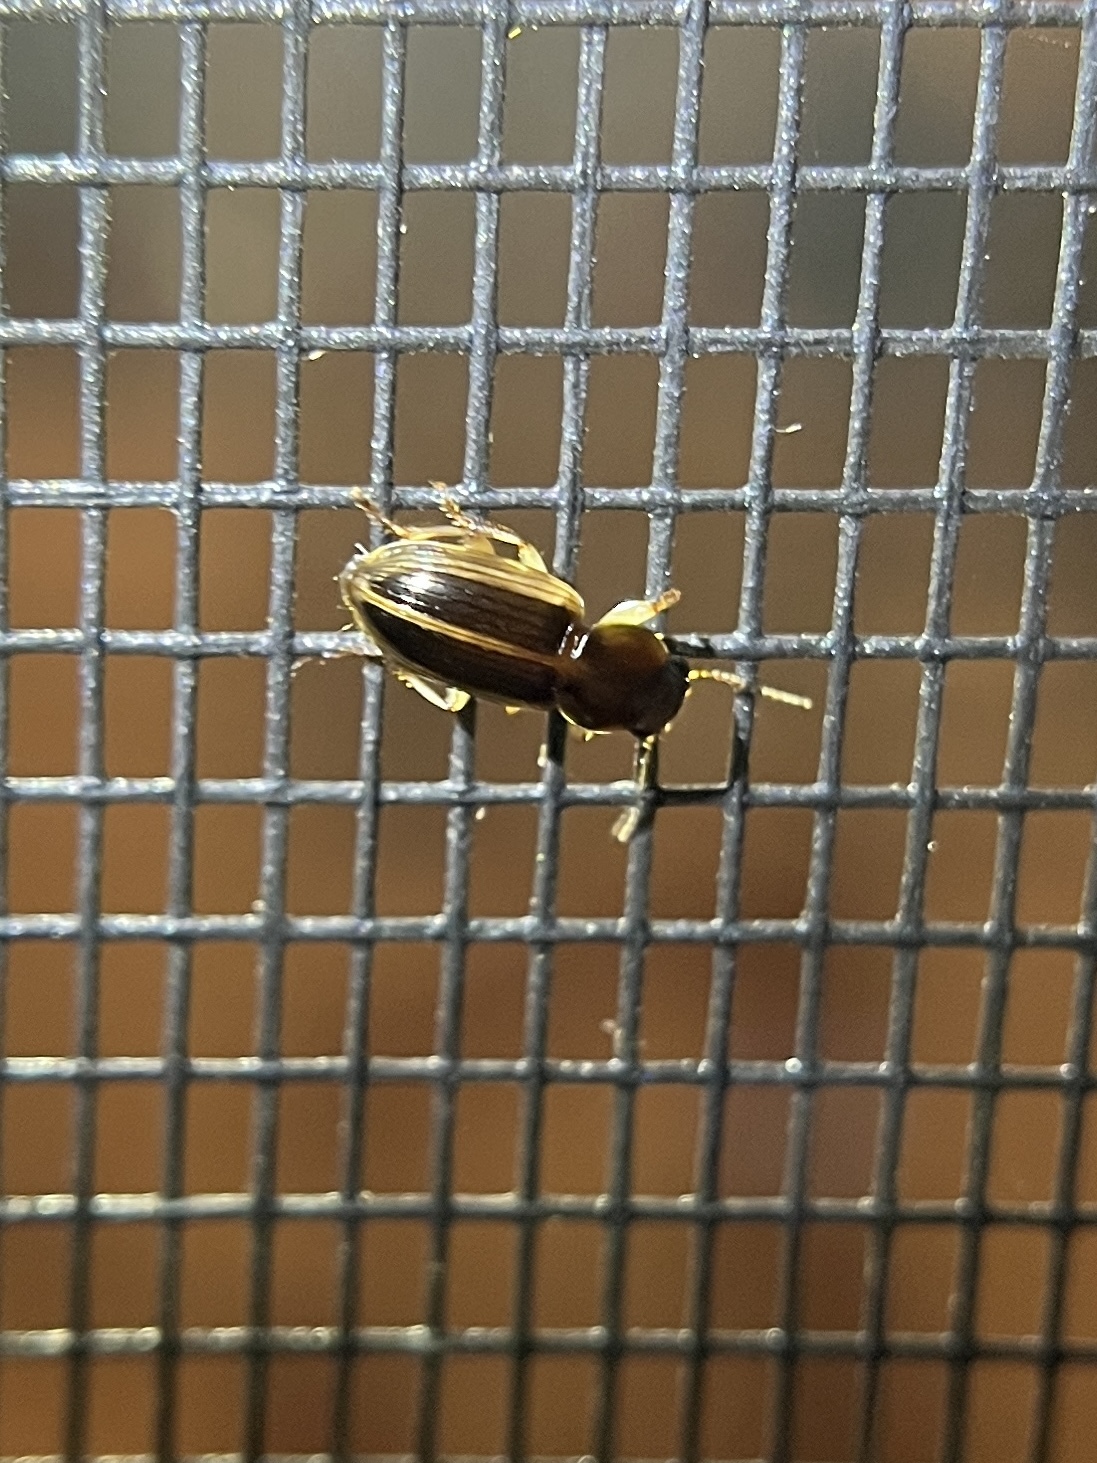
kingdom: Animalia
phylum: Arthropoda
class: Insecta
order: Coleoptera
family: Carabidae
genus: Stenolophus
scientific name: Stenolophus infuscatus
